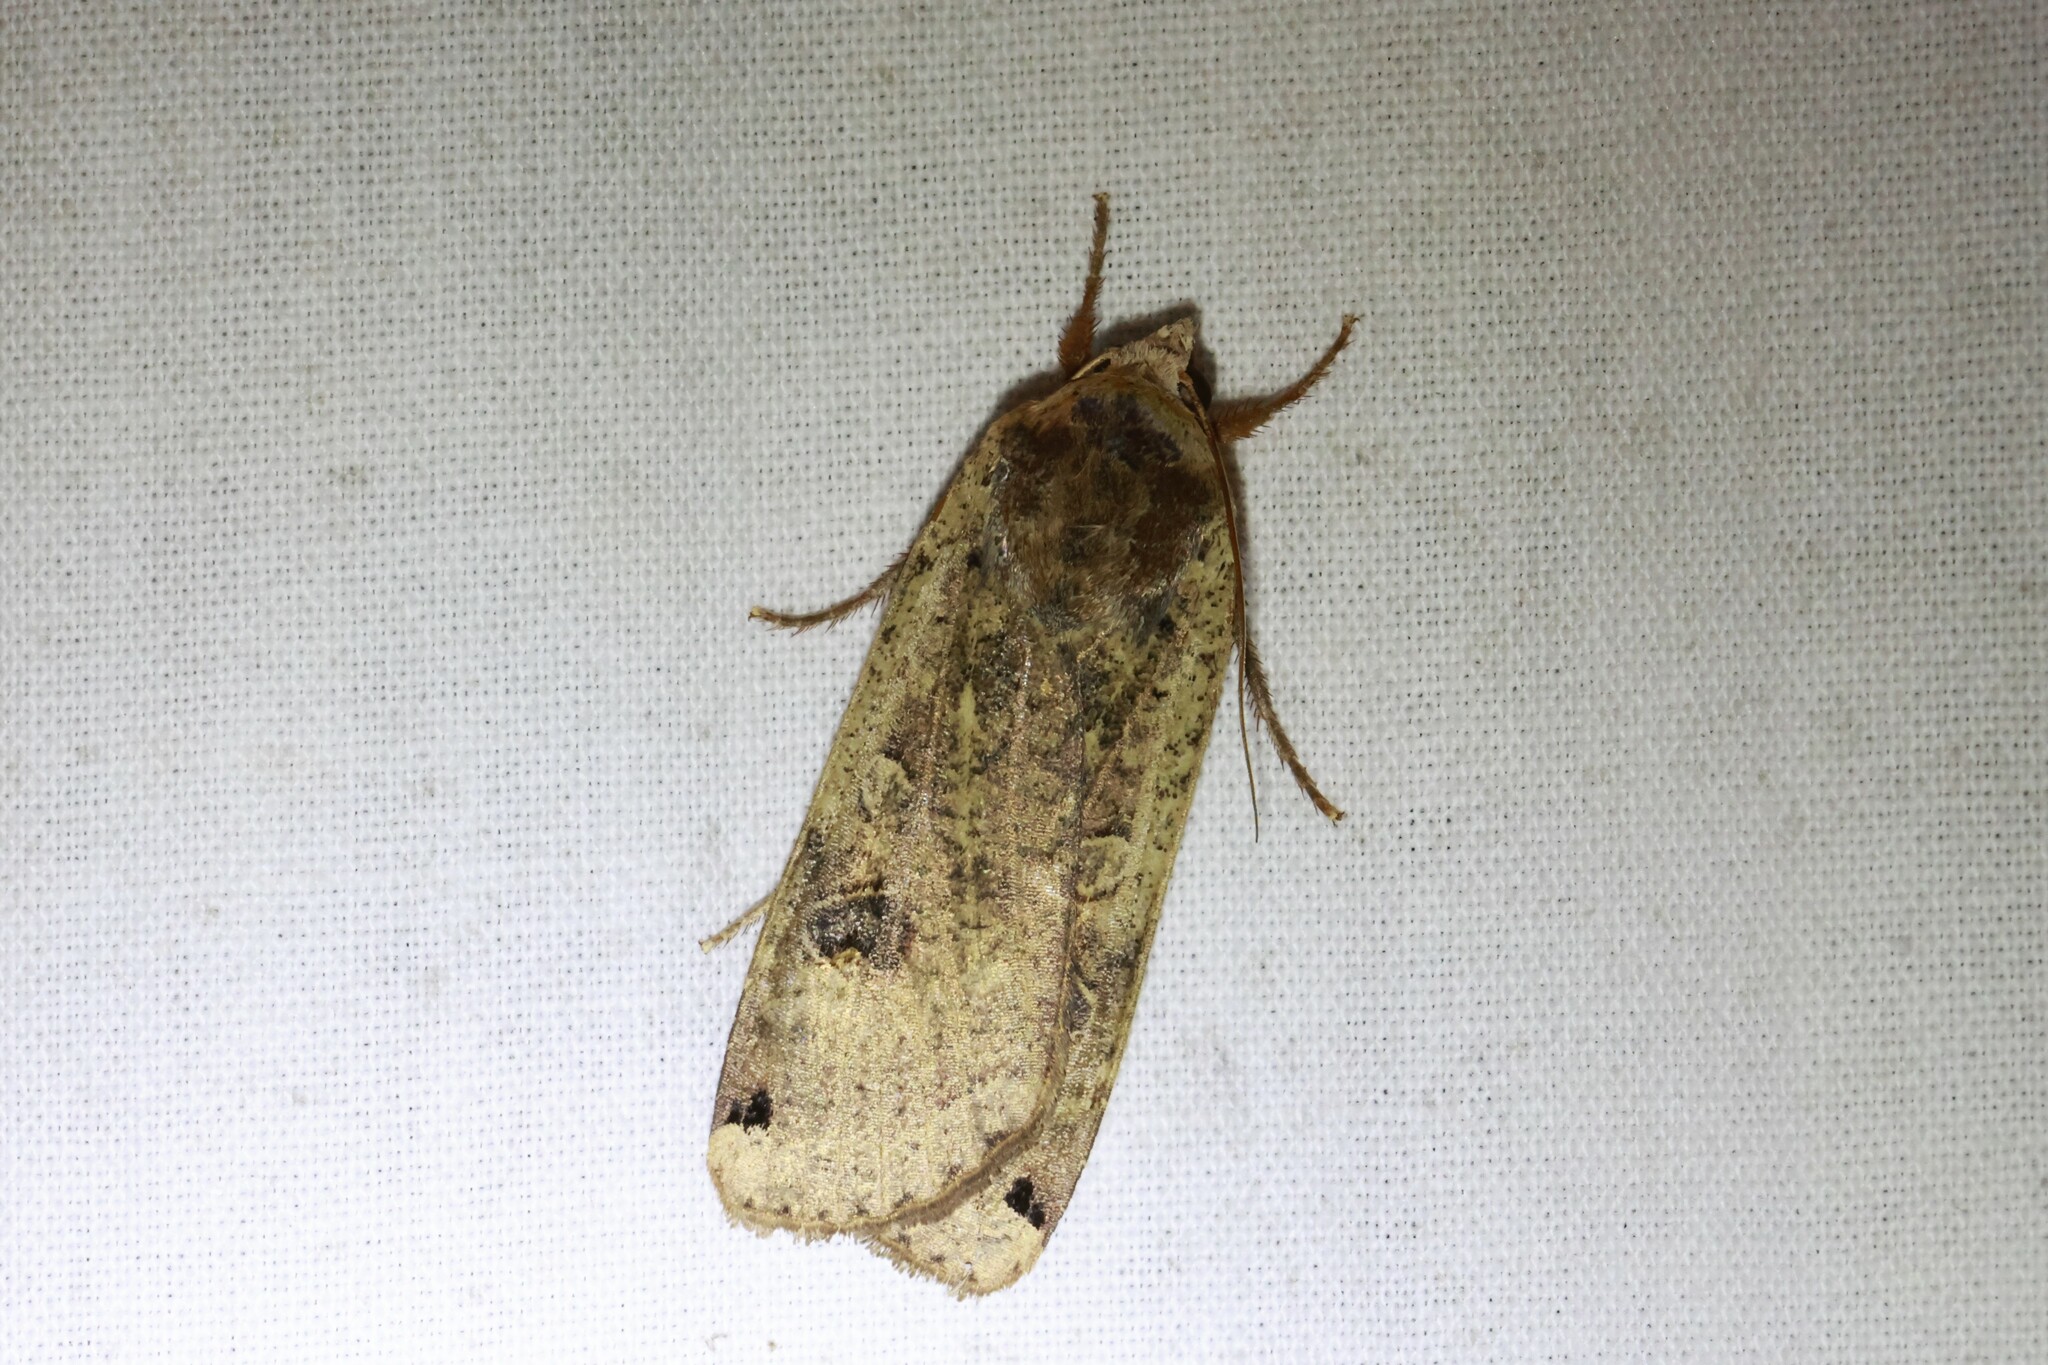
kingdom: Animalia
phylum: Arthropoda
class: Insecta
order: Lepidoptera
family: Noctuidae
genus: Noctua
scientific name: Noctua pronuba
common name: Large yellow underwing
